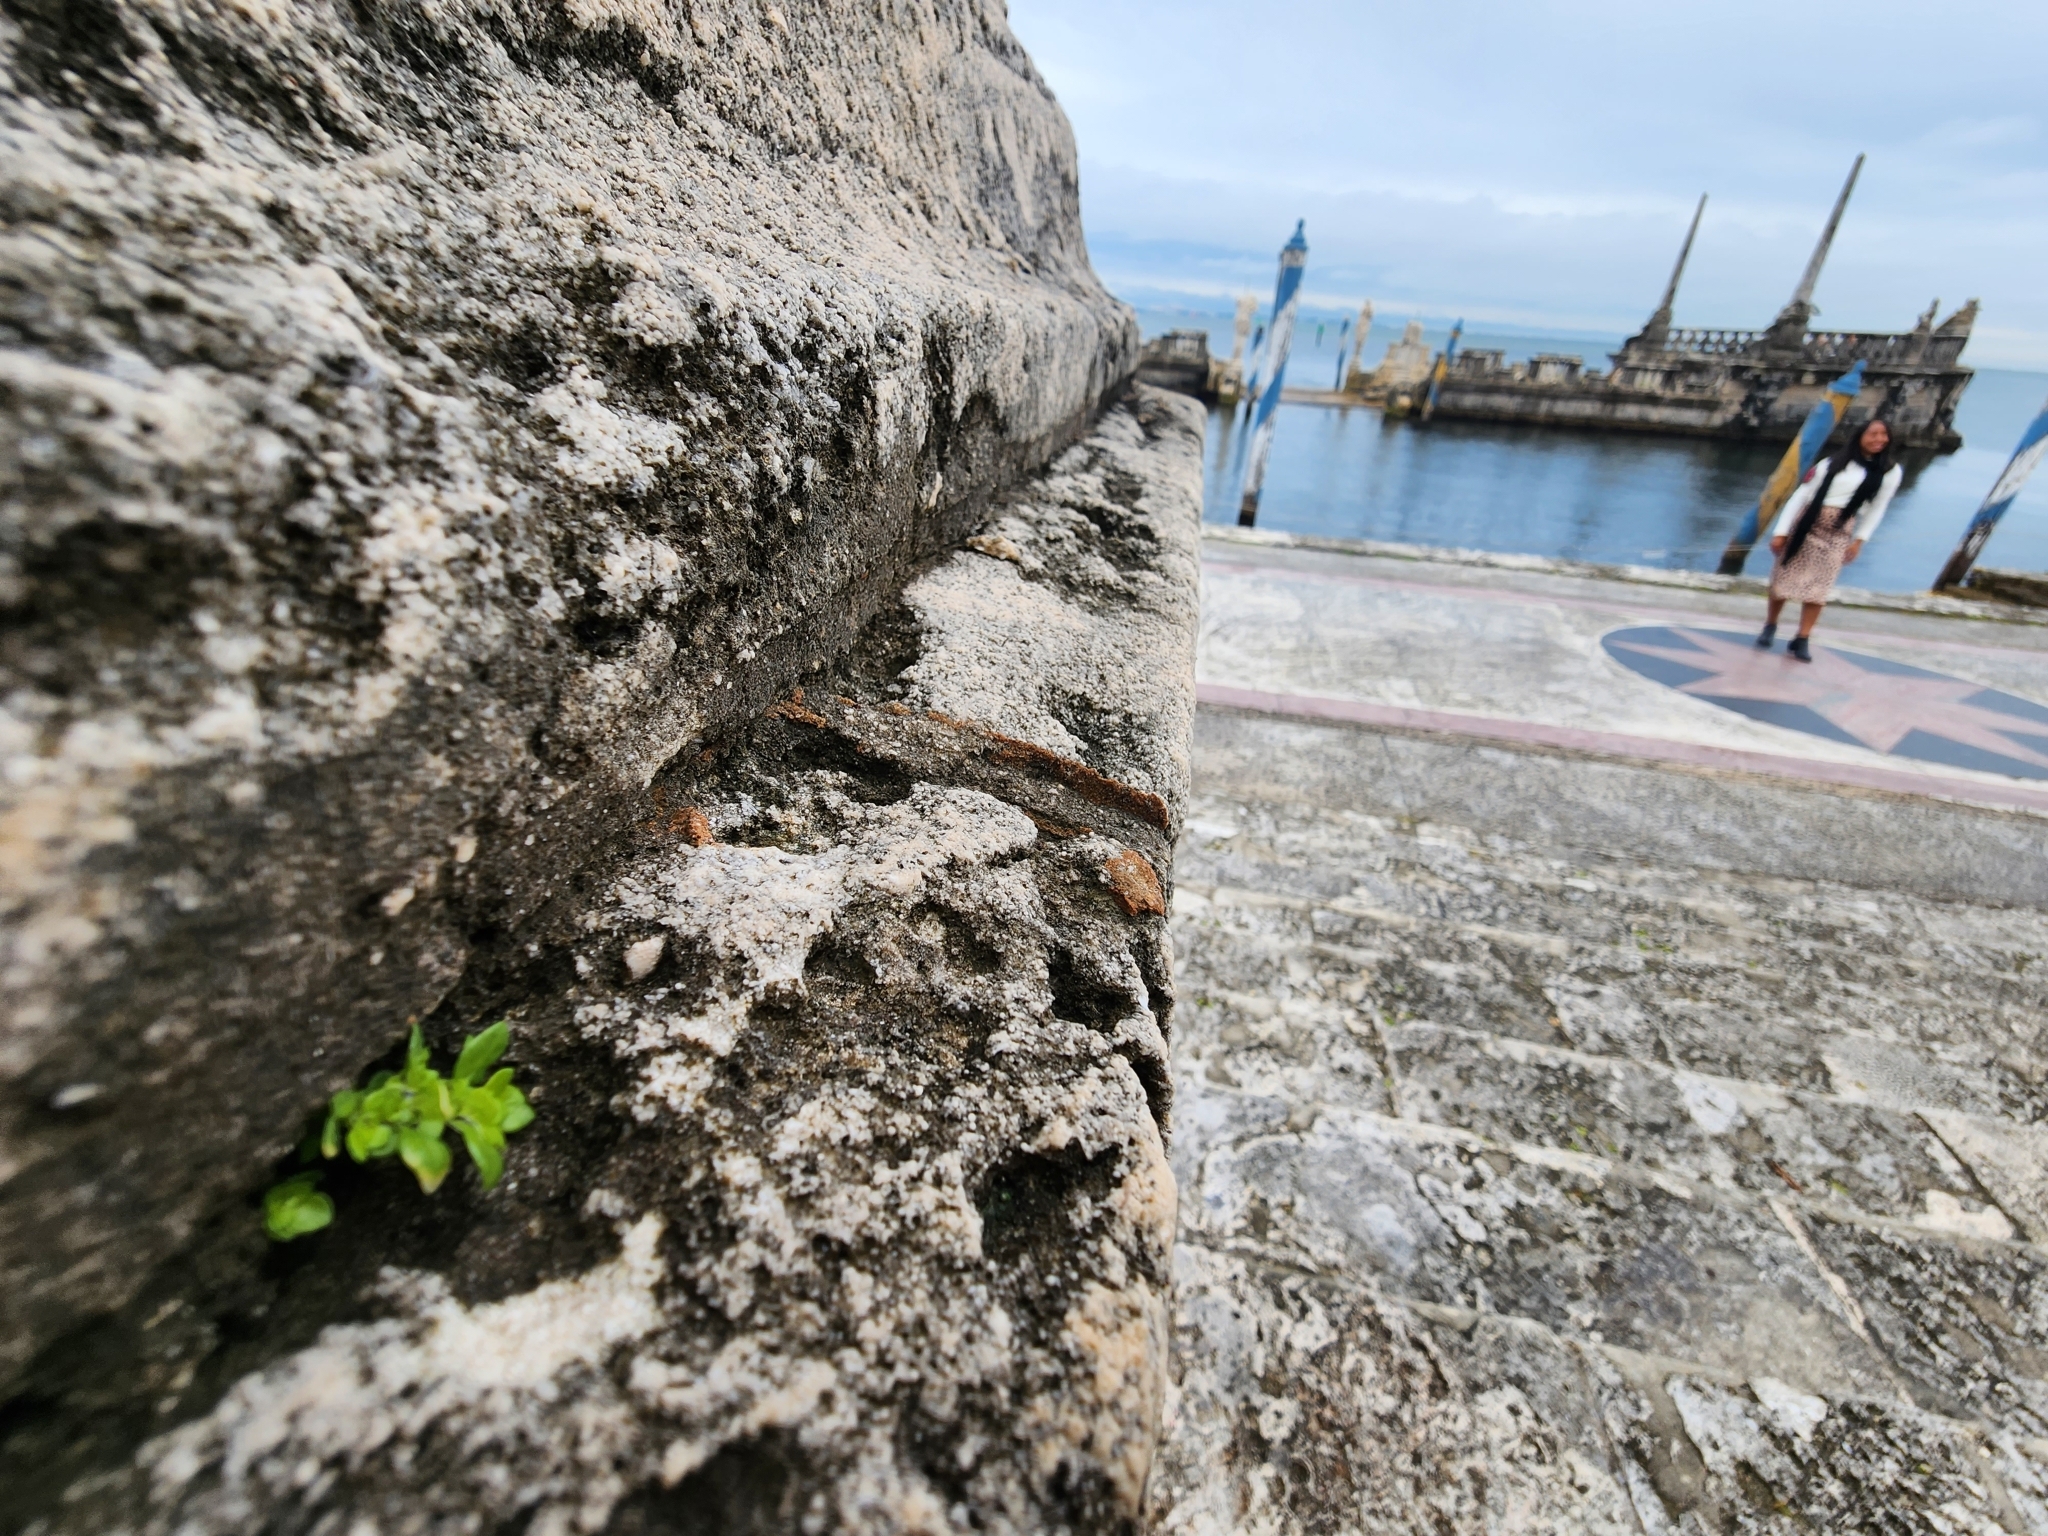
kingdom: Plantae
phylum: Tracheophyta
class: Magnoliopsida
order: Rosales
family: Urticaceae
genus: Pilea
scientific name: Pilea microphylla
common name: Artillery-plant
